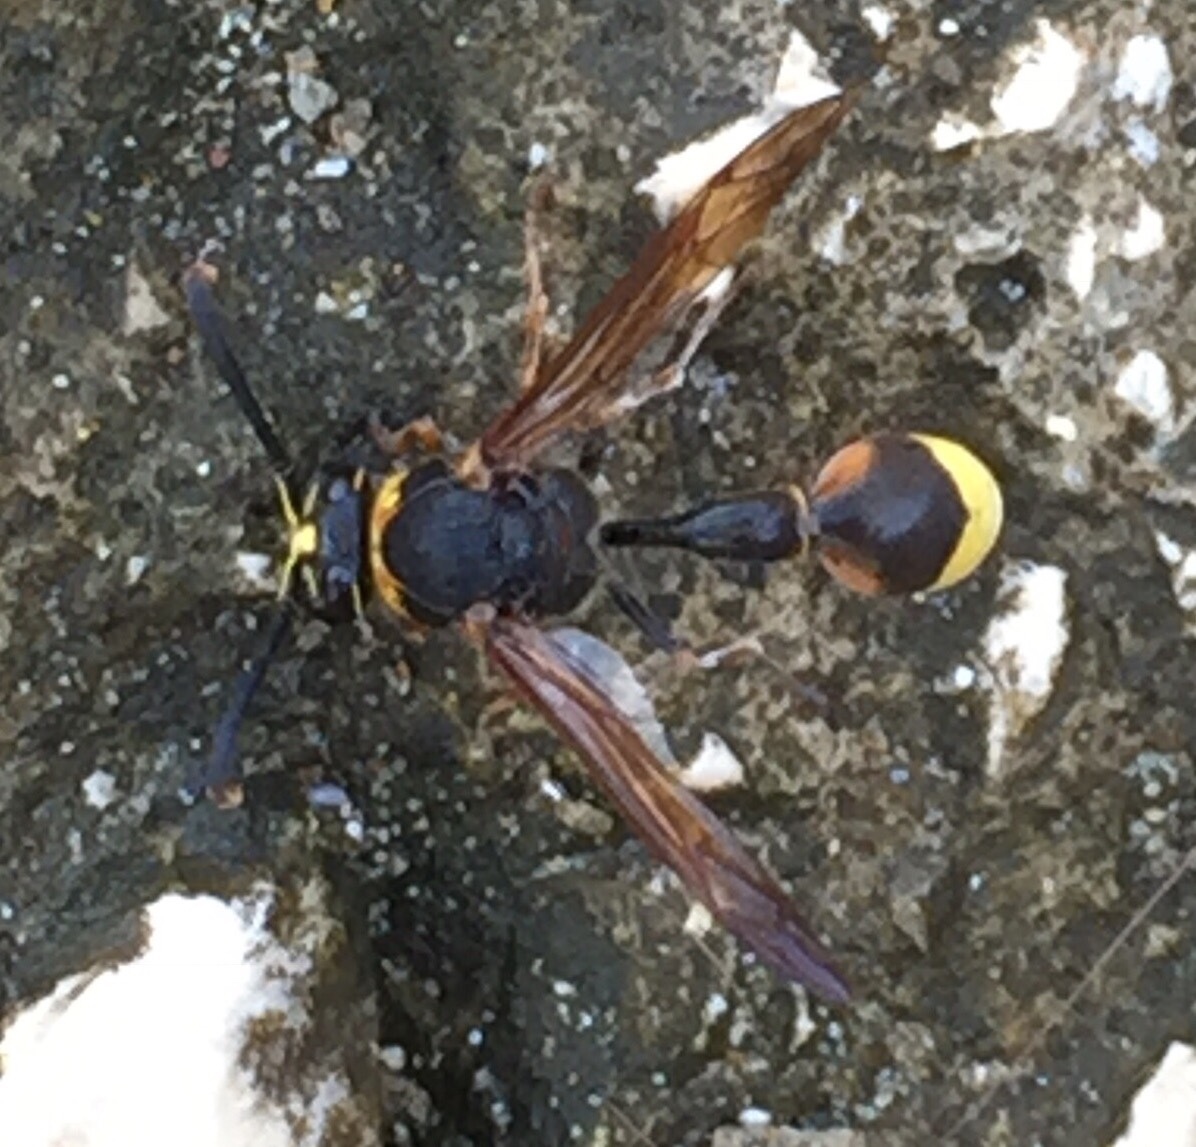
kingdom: Animalia
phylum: Arthropoda
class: Insecta
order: Hymenoptera
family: Eumenidae
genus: Delta
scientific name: Delta unguiculatum
